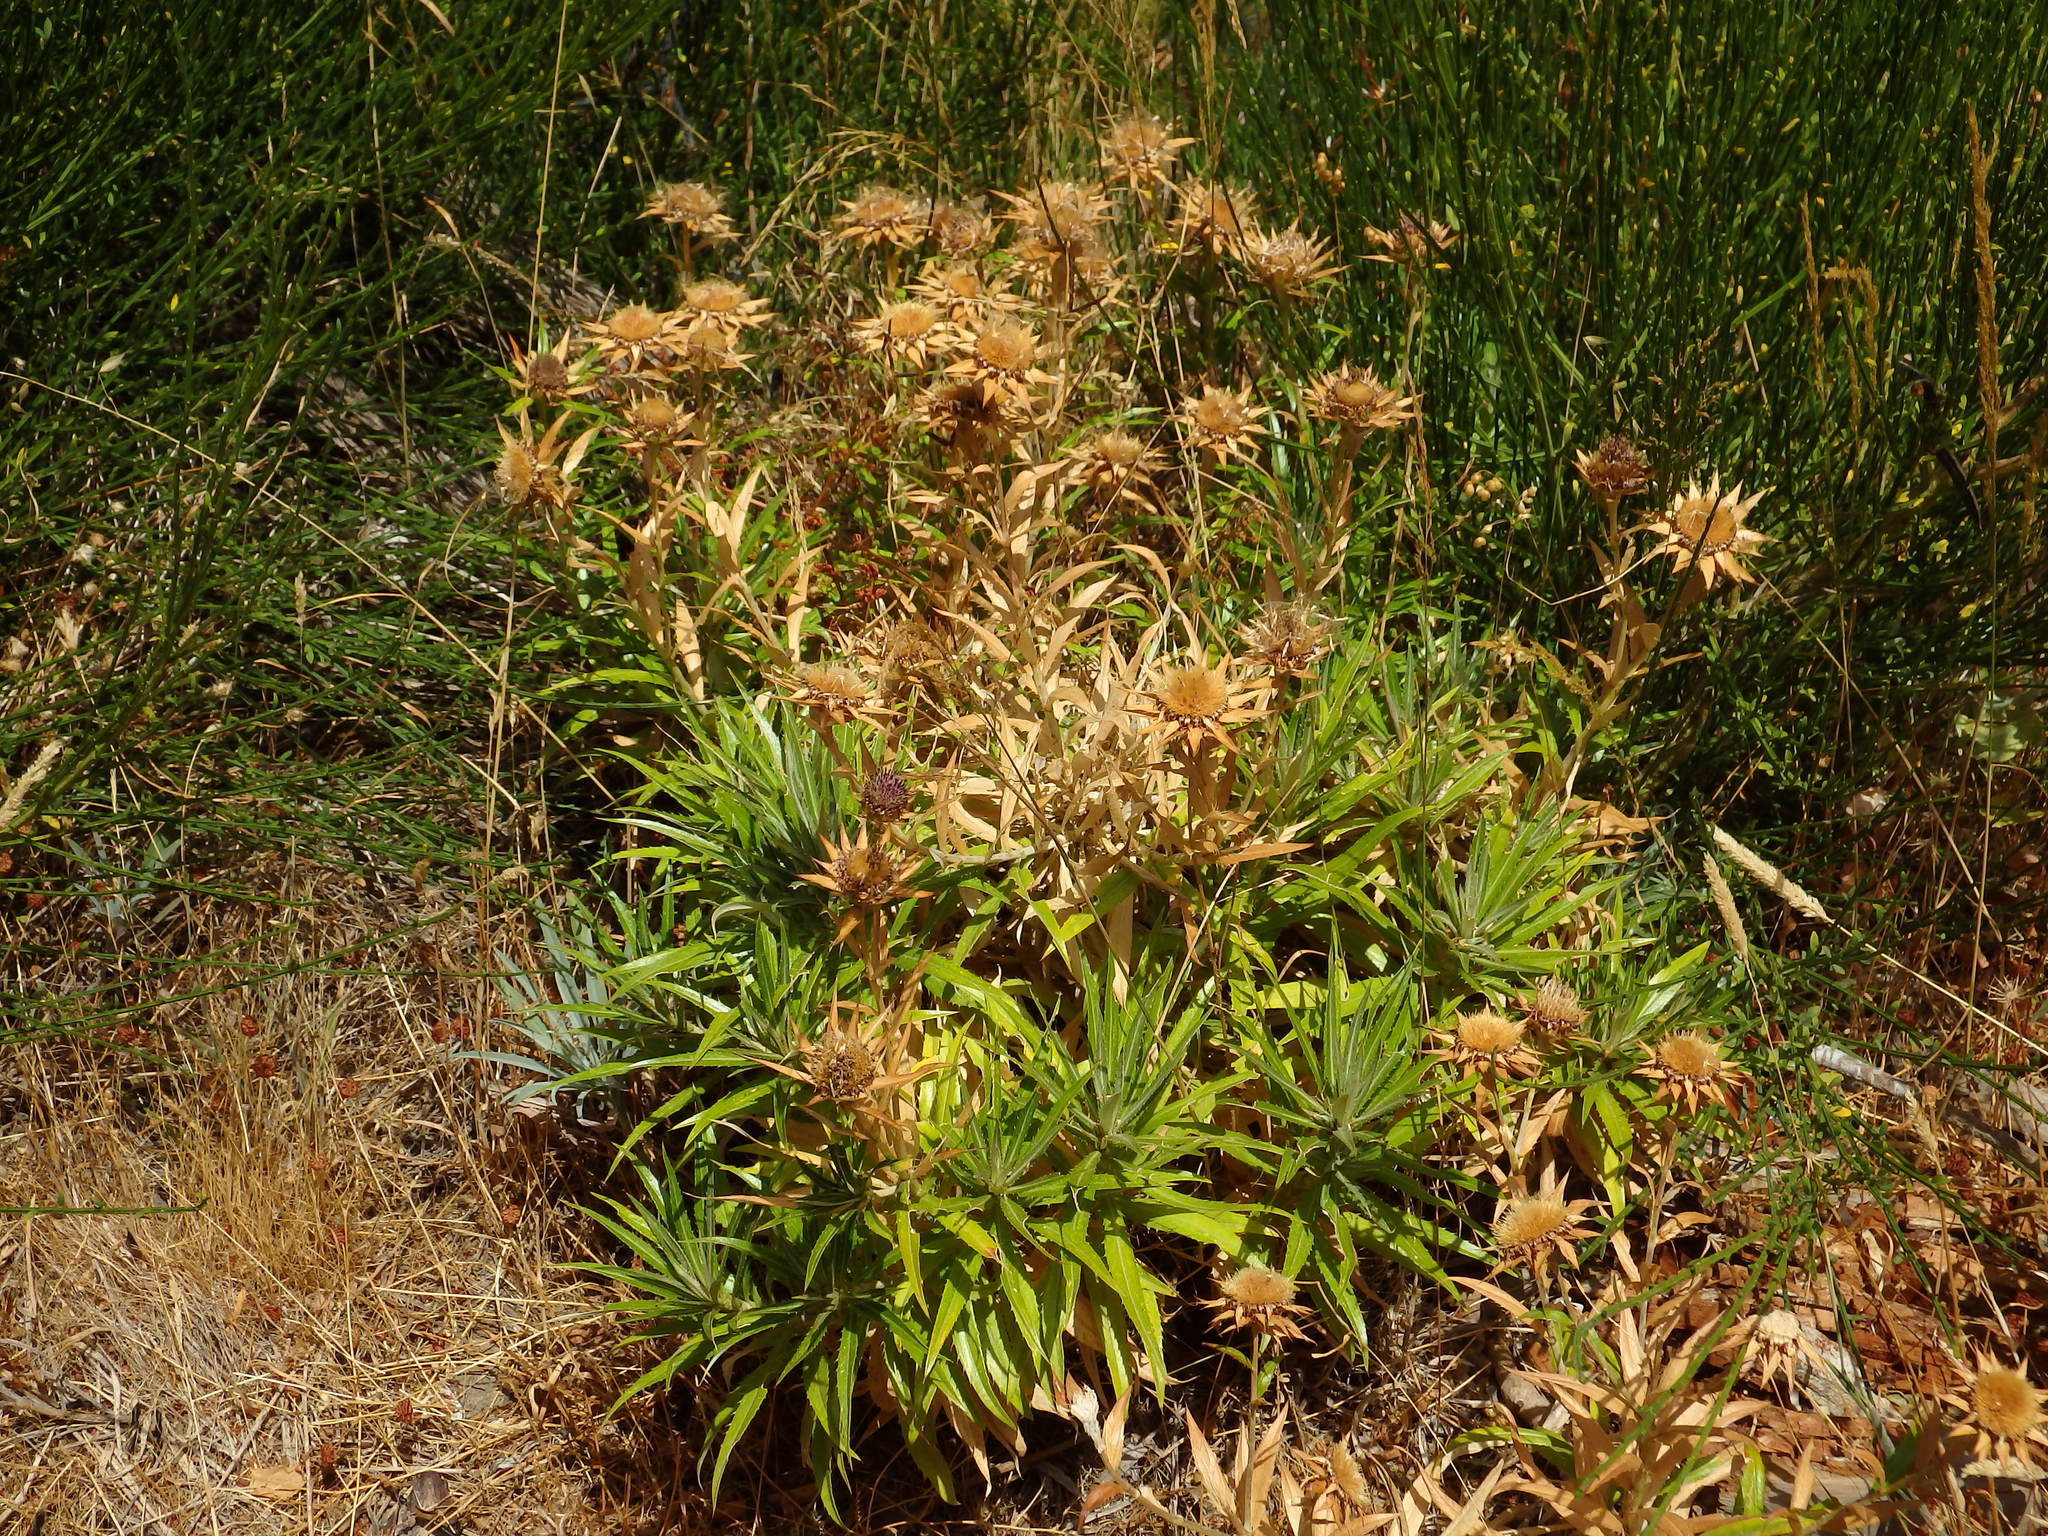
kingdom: Plantae
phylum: Tracheophyta
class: Magnoliopsida
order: Asterales
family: Asteraceae
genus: Carlina
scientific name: Carlina salicifolia
